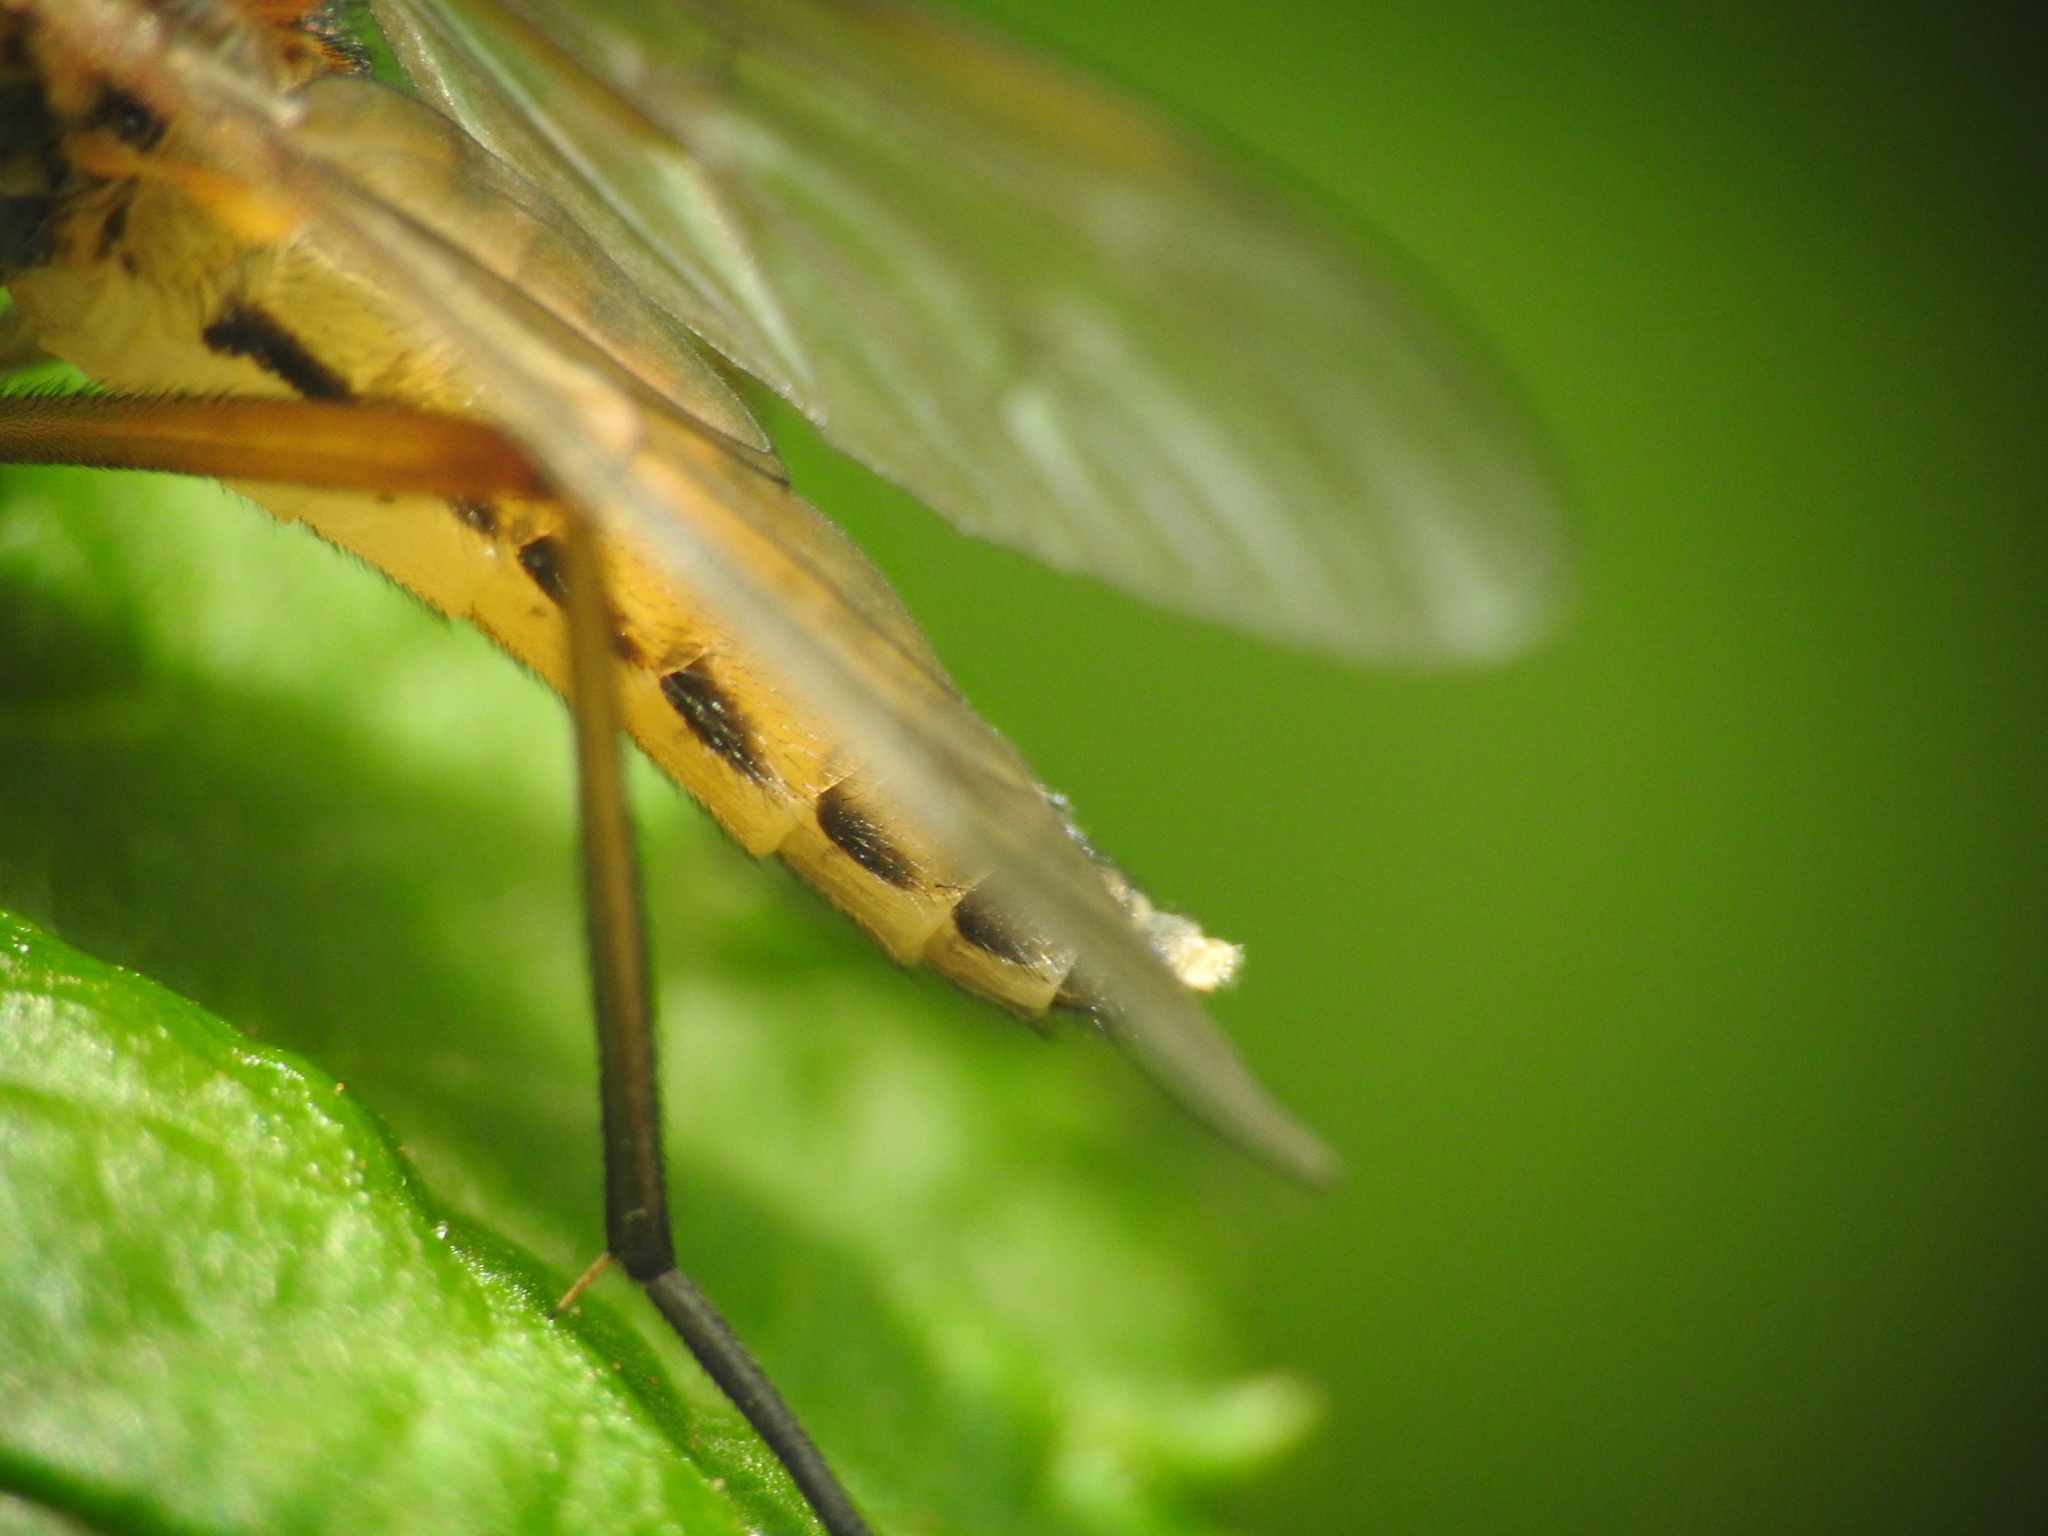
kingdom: Animalia
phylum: Arthropoda
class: Insecta
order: Diptera
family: Rhagionidae
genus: Rhagio
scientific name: Rhagio tringaria
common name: Marsh snipefly
